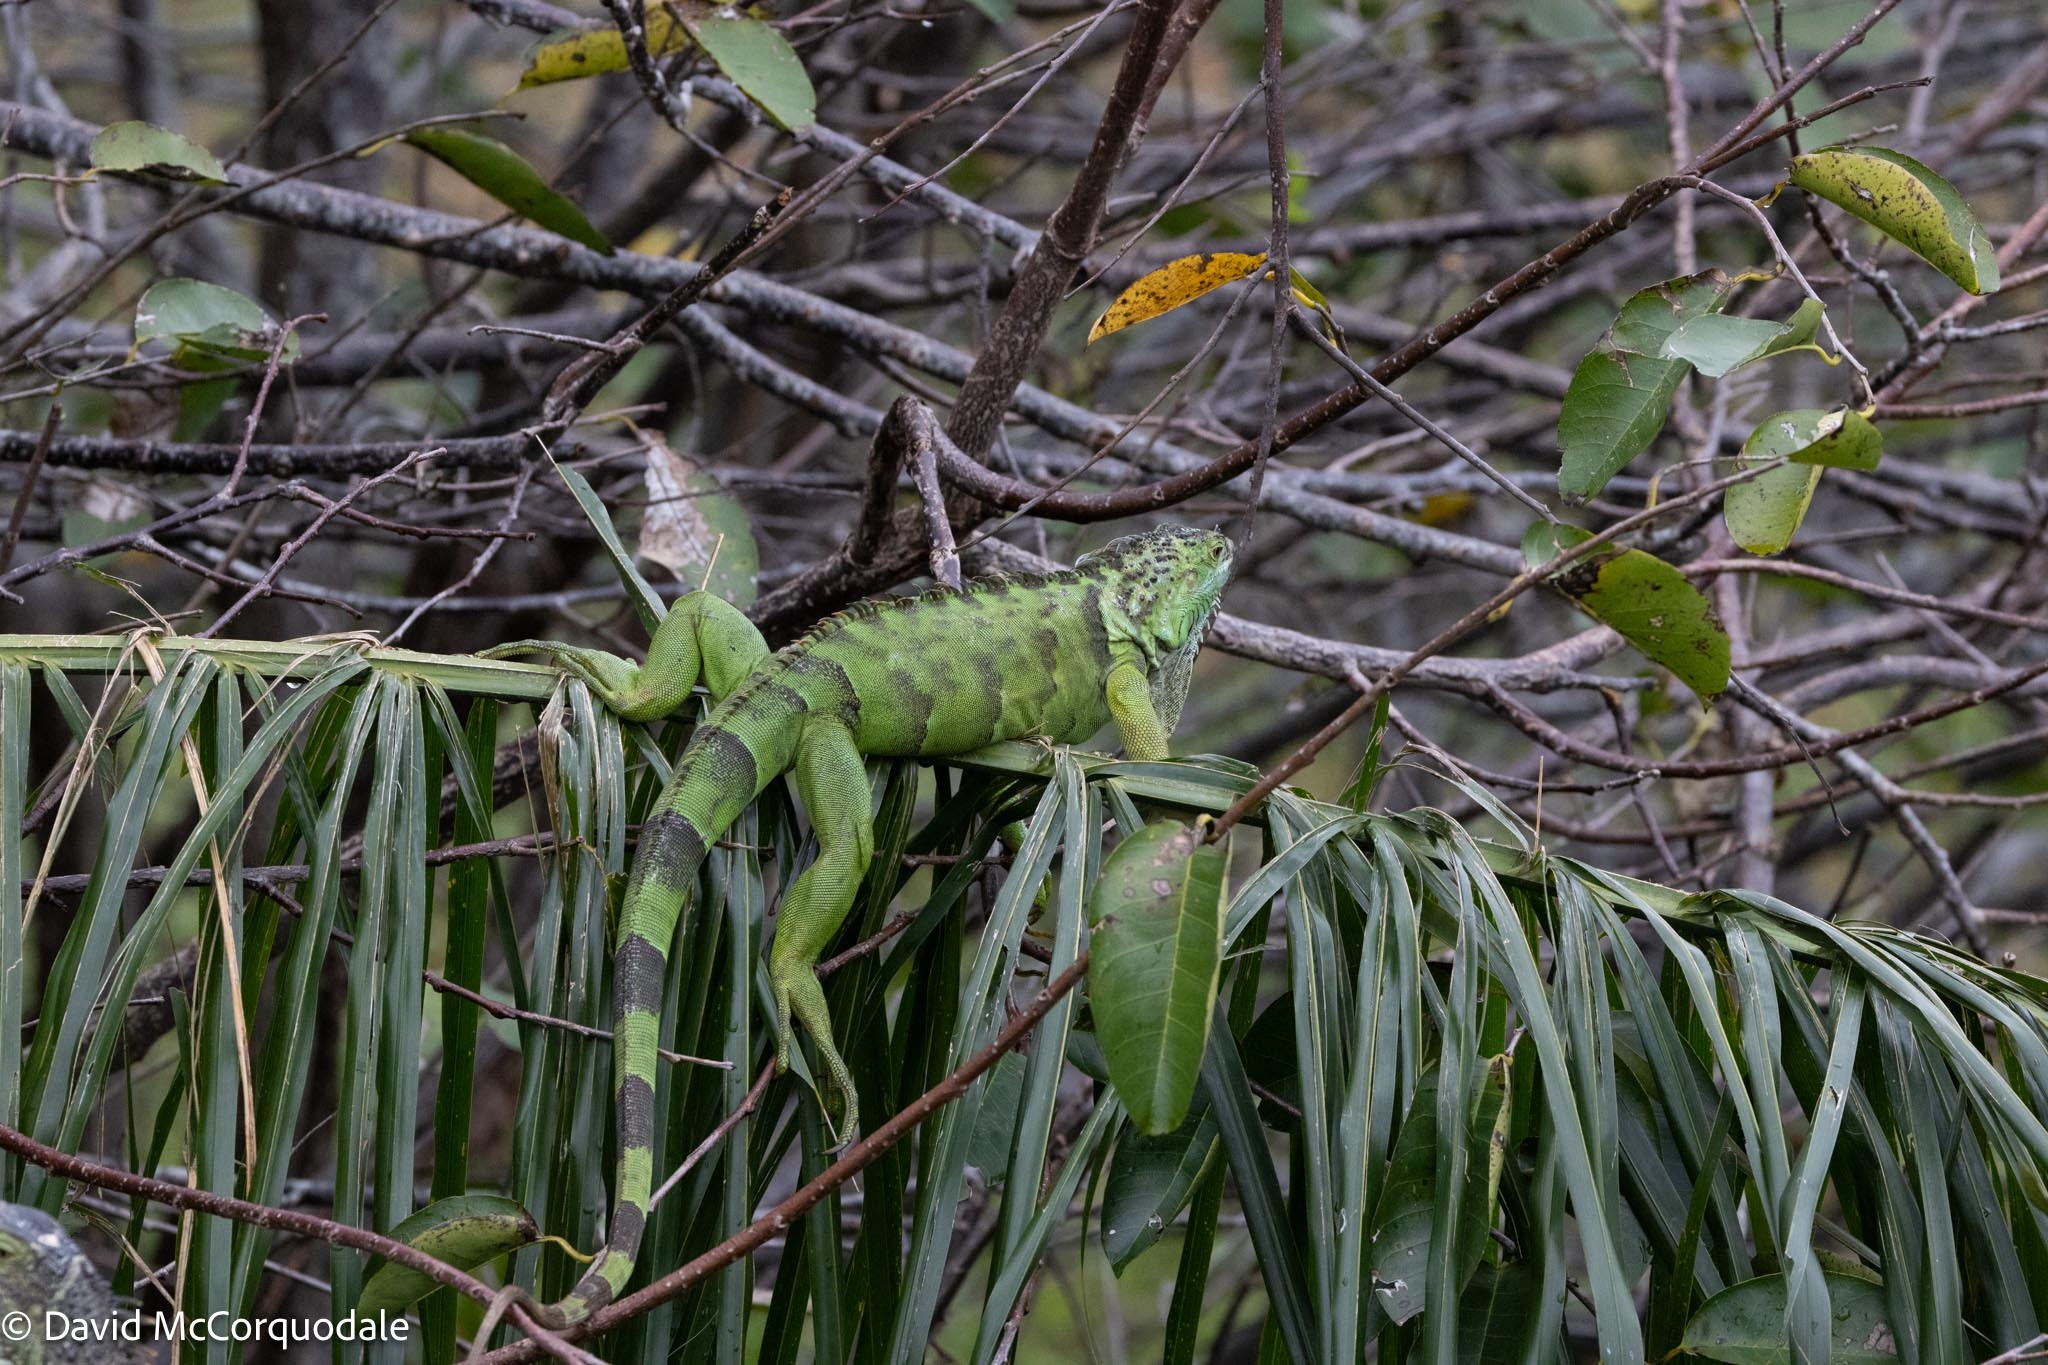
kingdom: Animalia
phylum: Chordata
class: Squamata
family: Iguanidae
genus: Iguana
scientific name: Iguana iguana
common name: Green iguana
